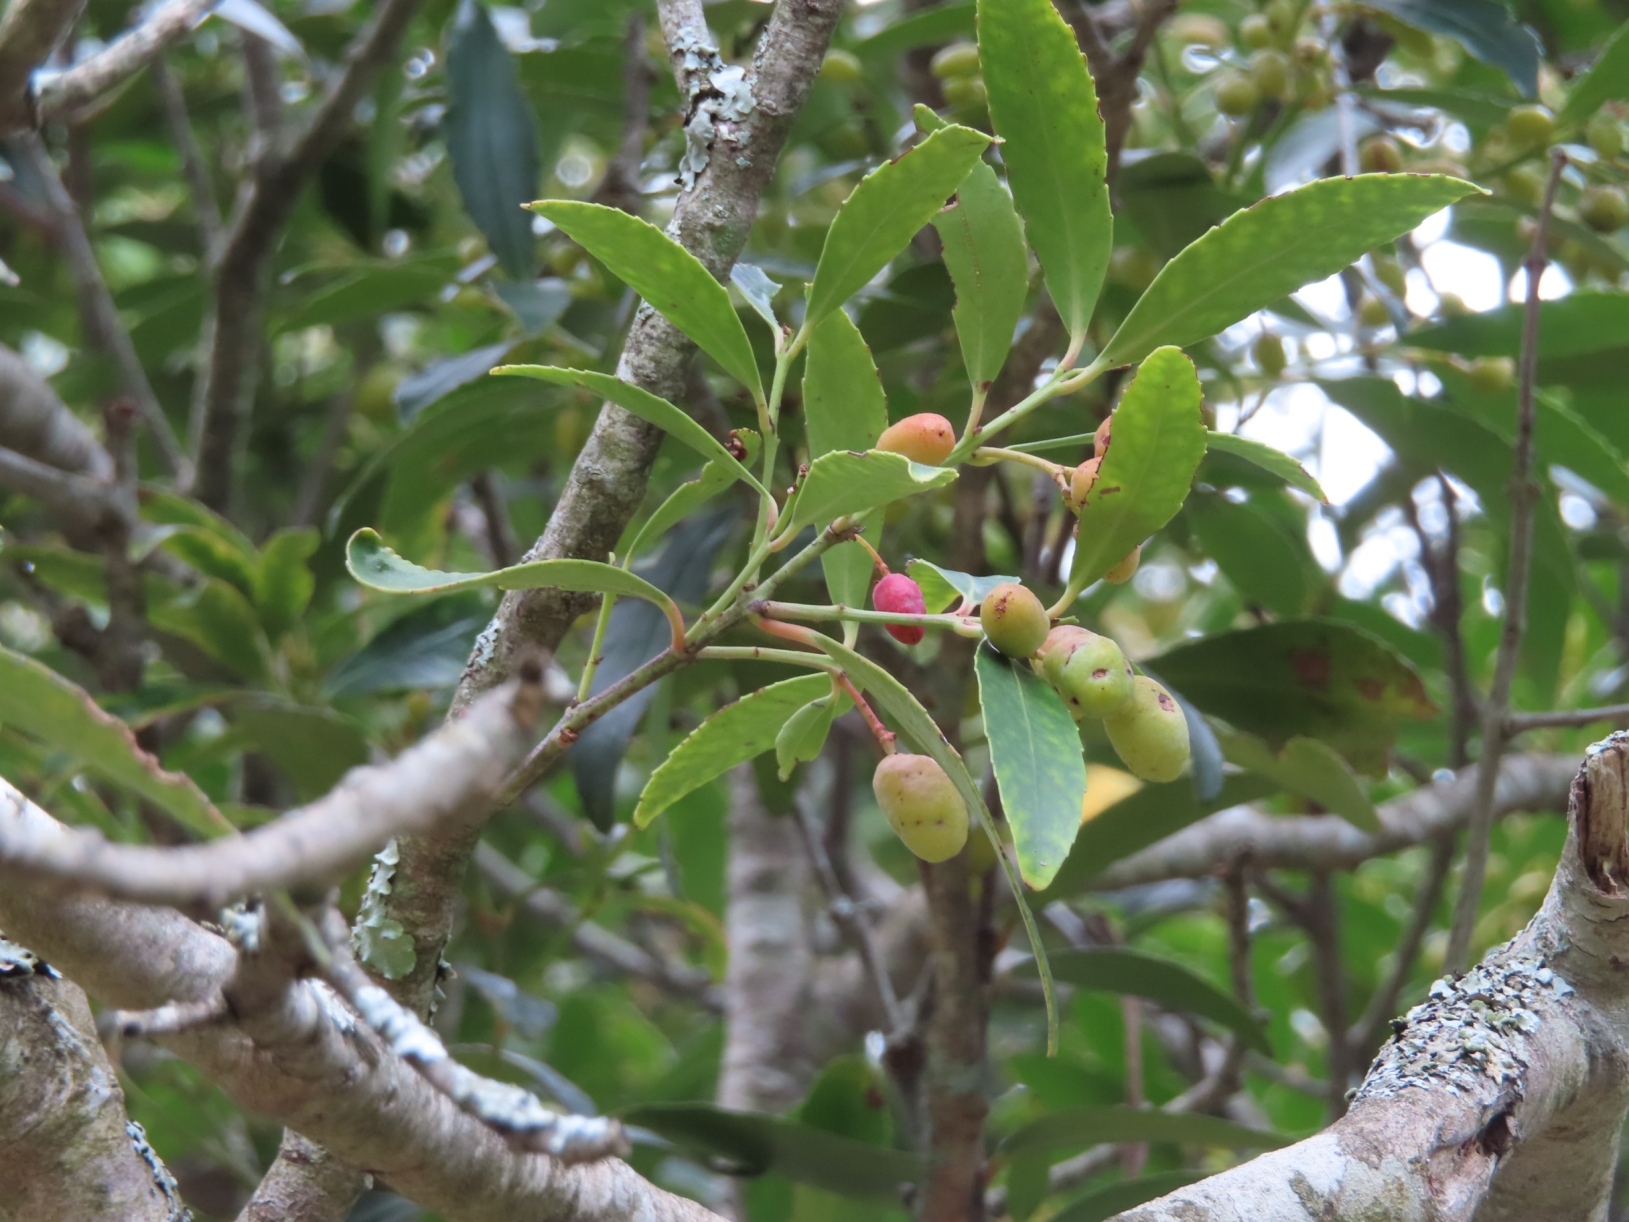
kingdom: Plantae
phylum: Tracheophyta
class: Magnoliopsida
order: Celastrales
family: Celastraceae
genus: Elaeodendron
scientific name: Elaeodendron schinoides
